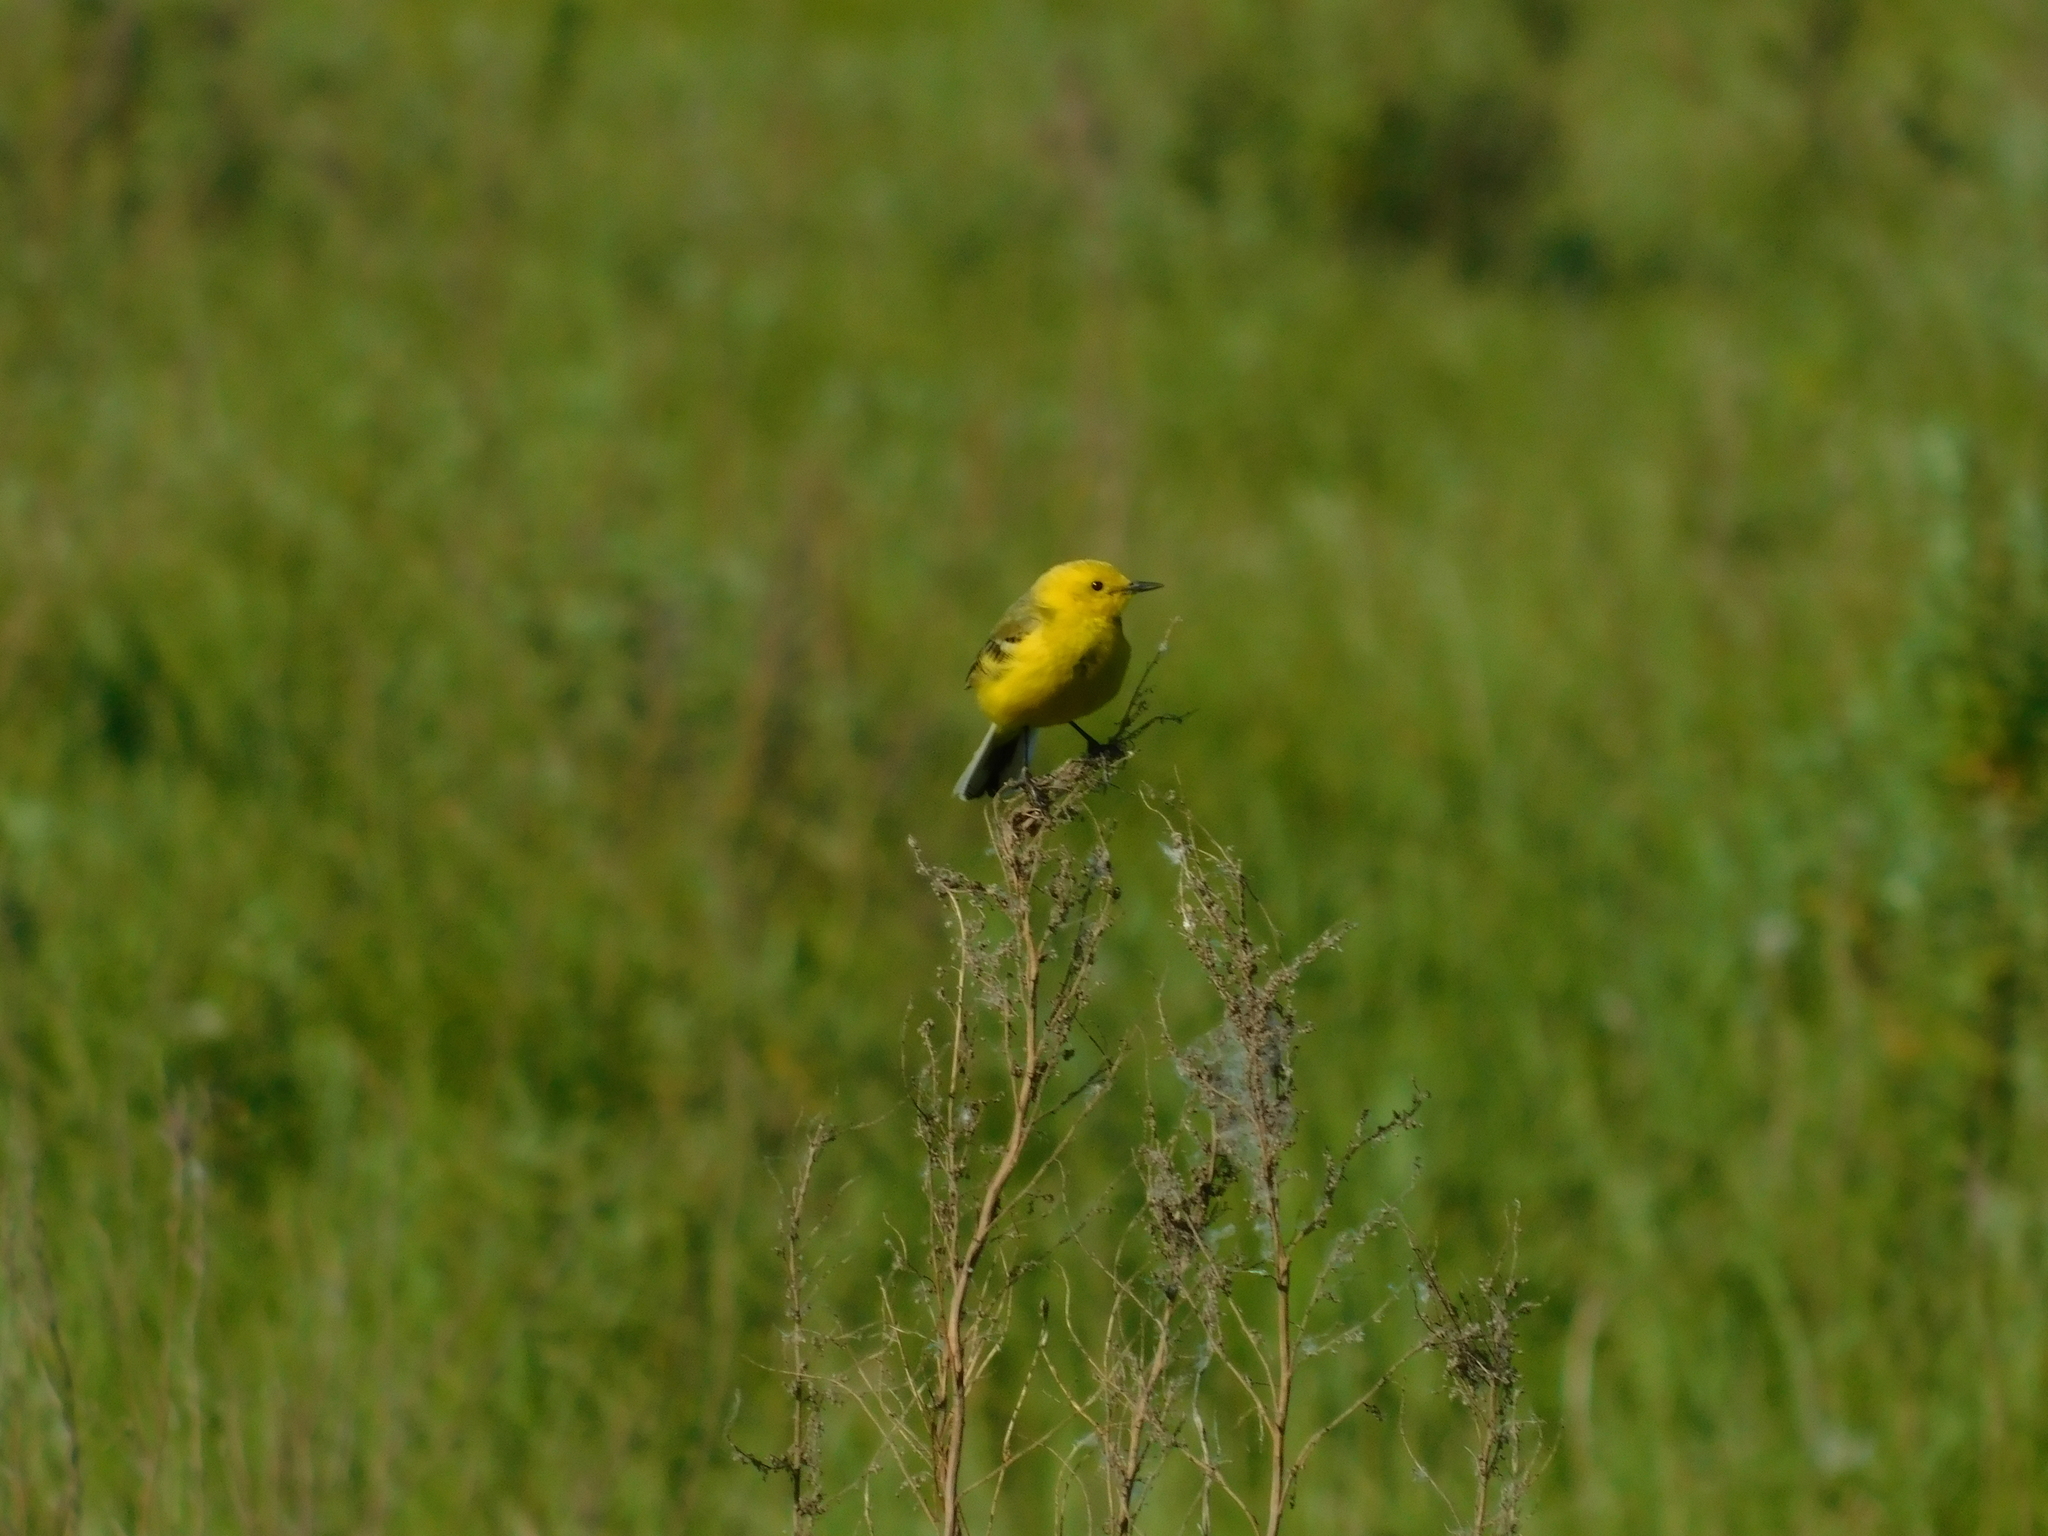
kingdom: Animalia
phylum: Chordata
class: Aves
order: Passeriformes
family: Motacillidae
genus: Motacilla
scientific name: Motacilla flava
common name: Western yellow wagtail
